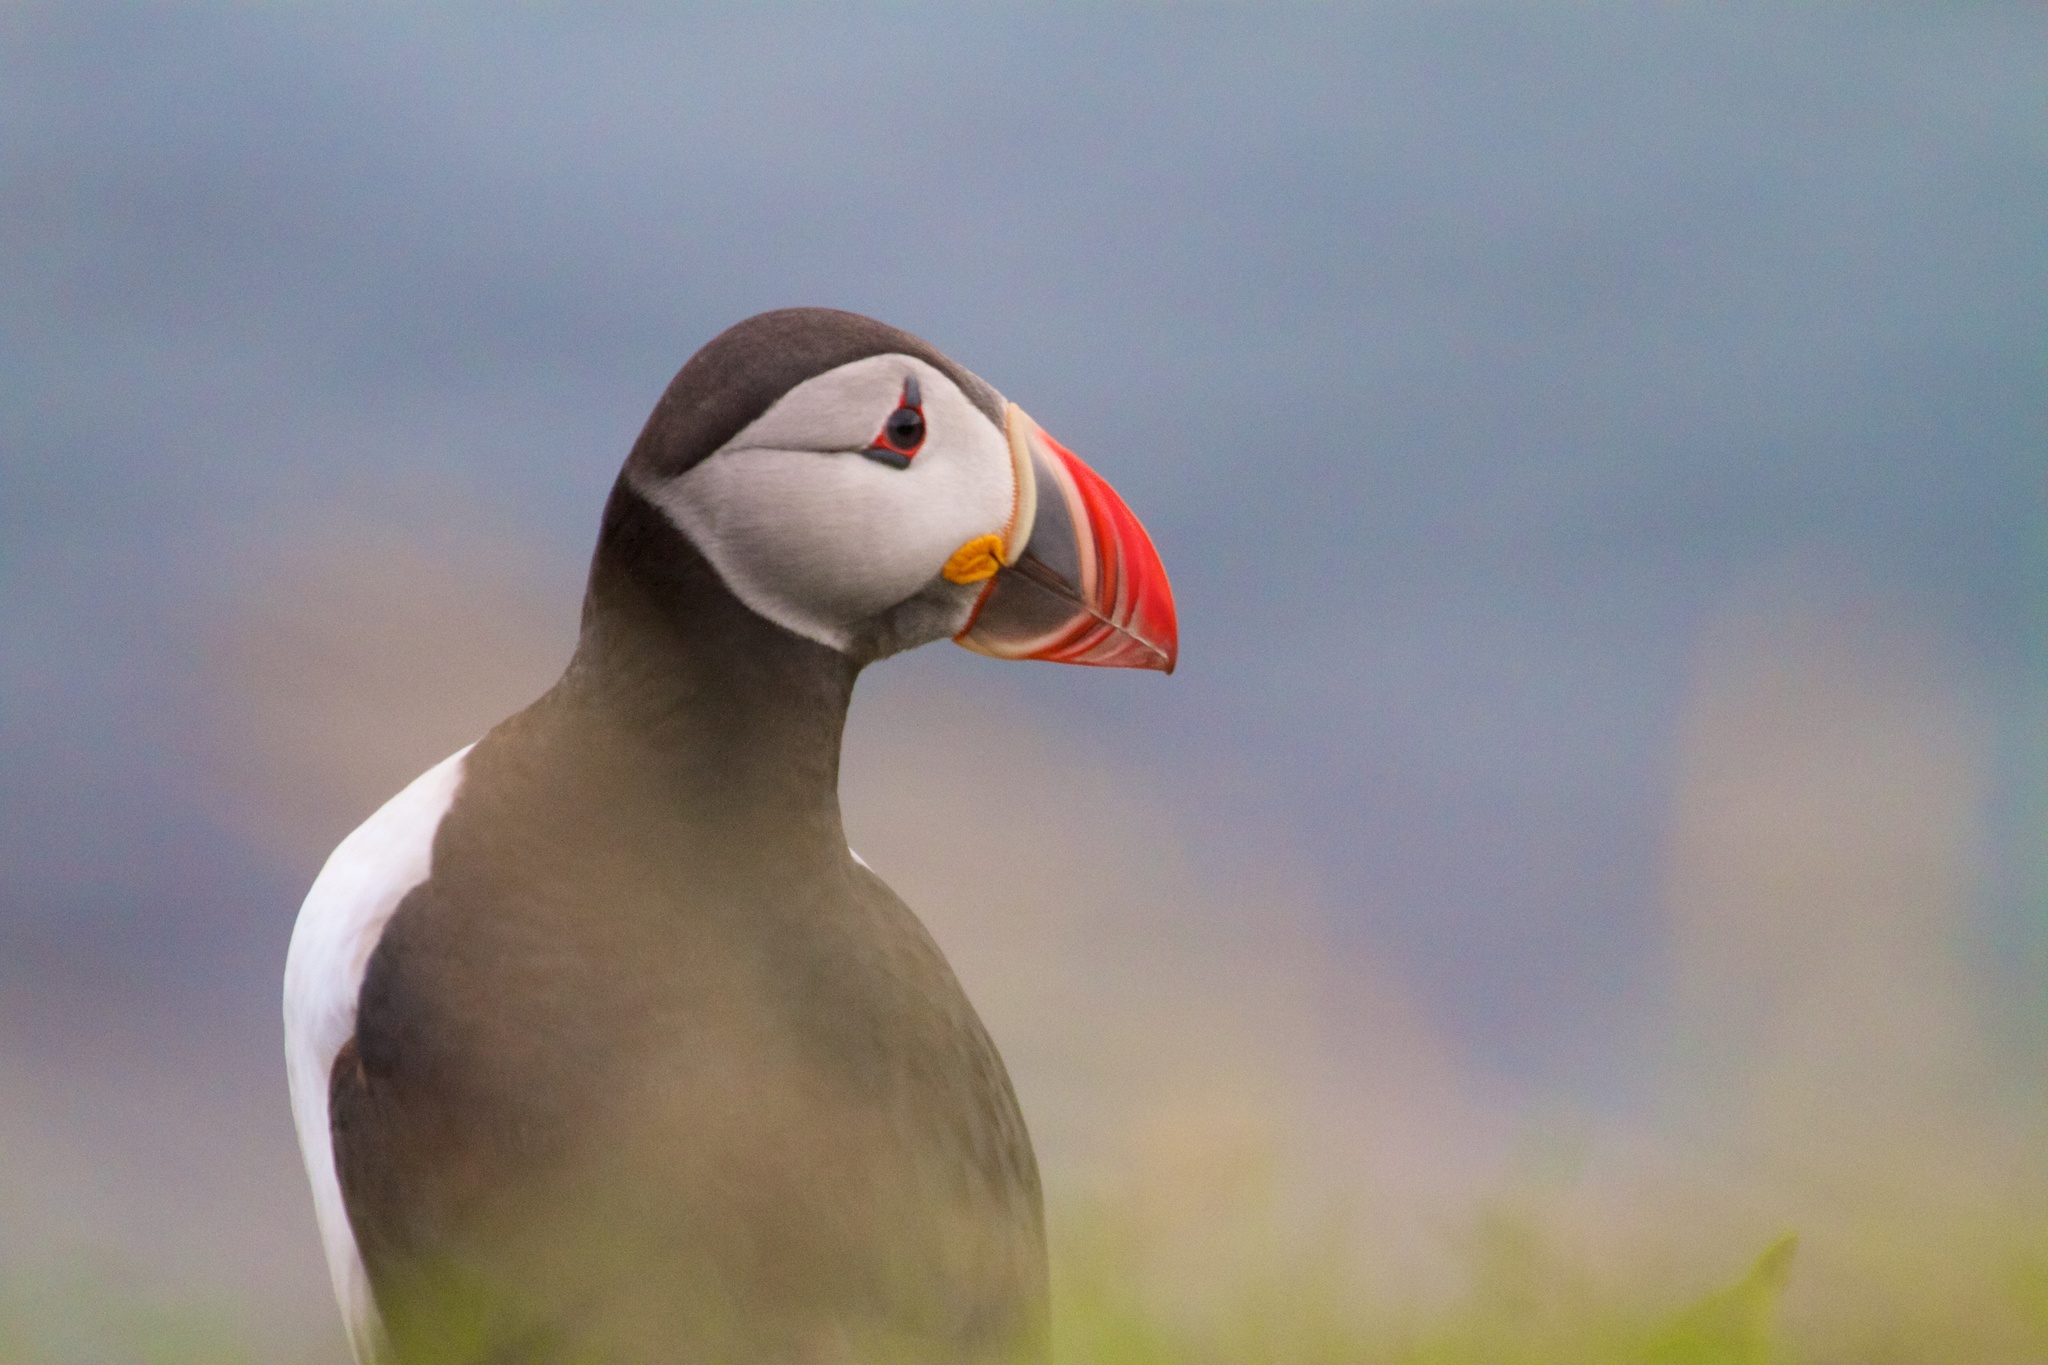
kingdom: Animalia
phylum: Chordata
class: Aves
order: Charadriiformes
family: Alcidae
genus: Fratercula
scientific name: Fratercula arctica
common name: Atlantic puffin
